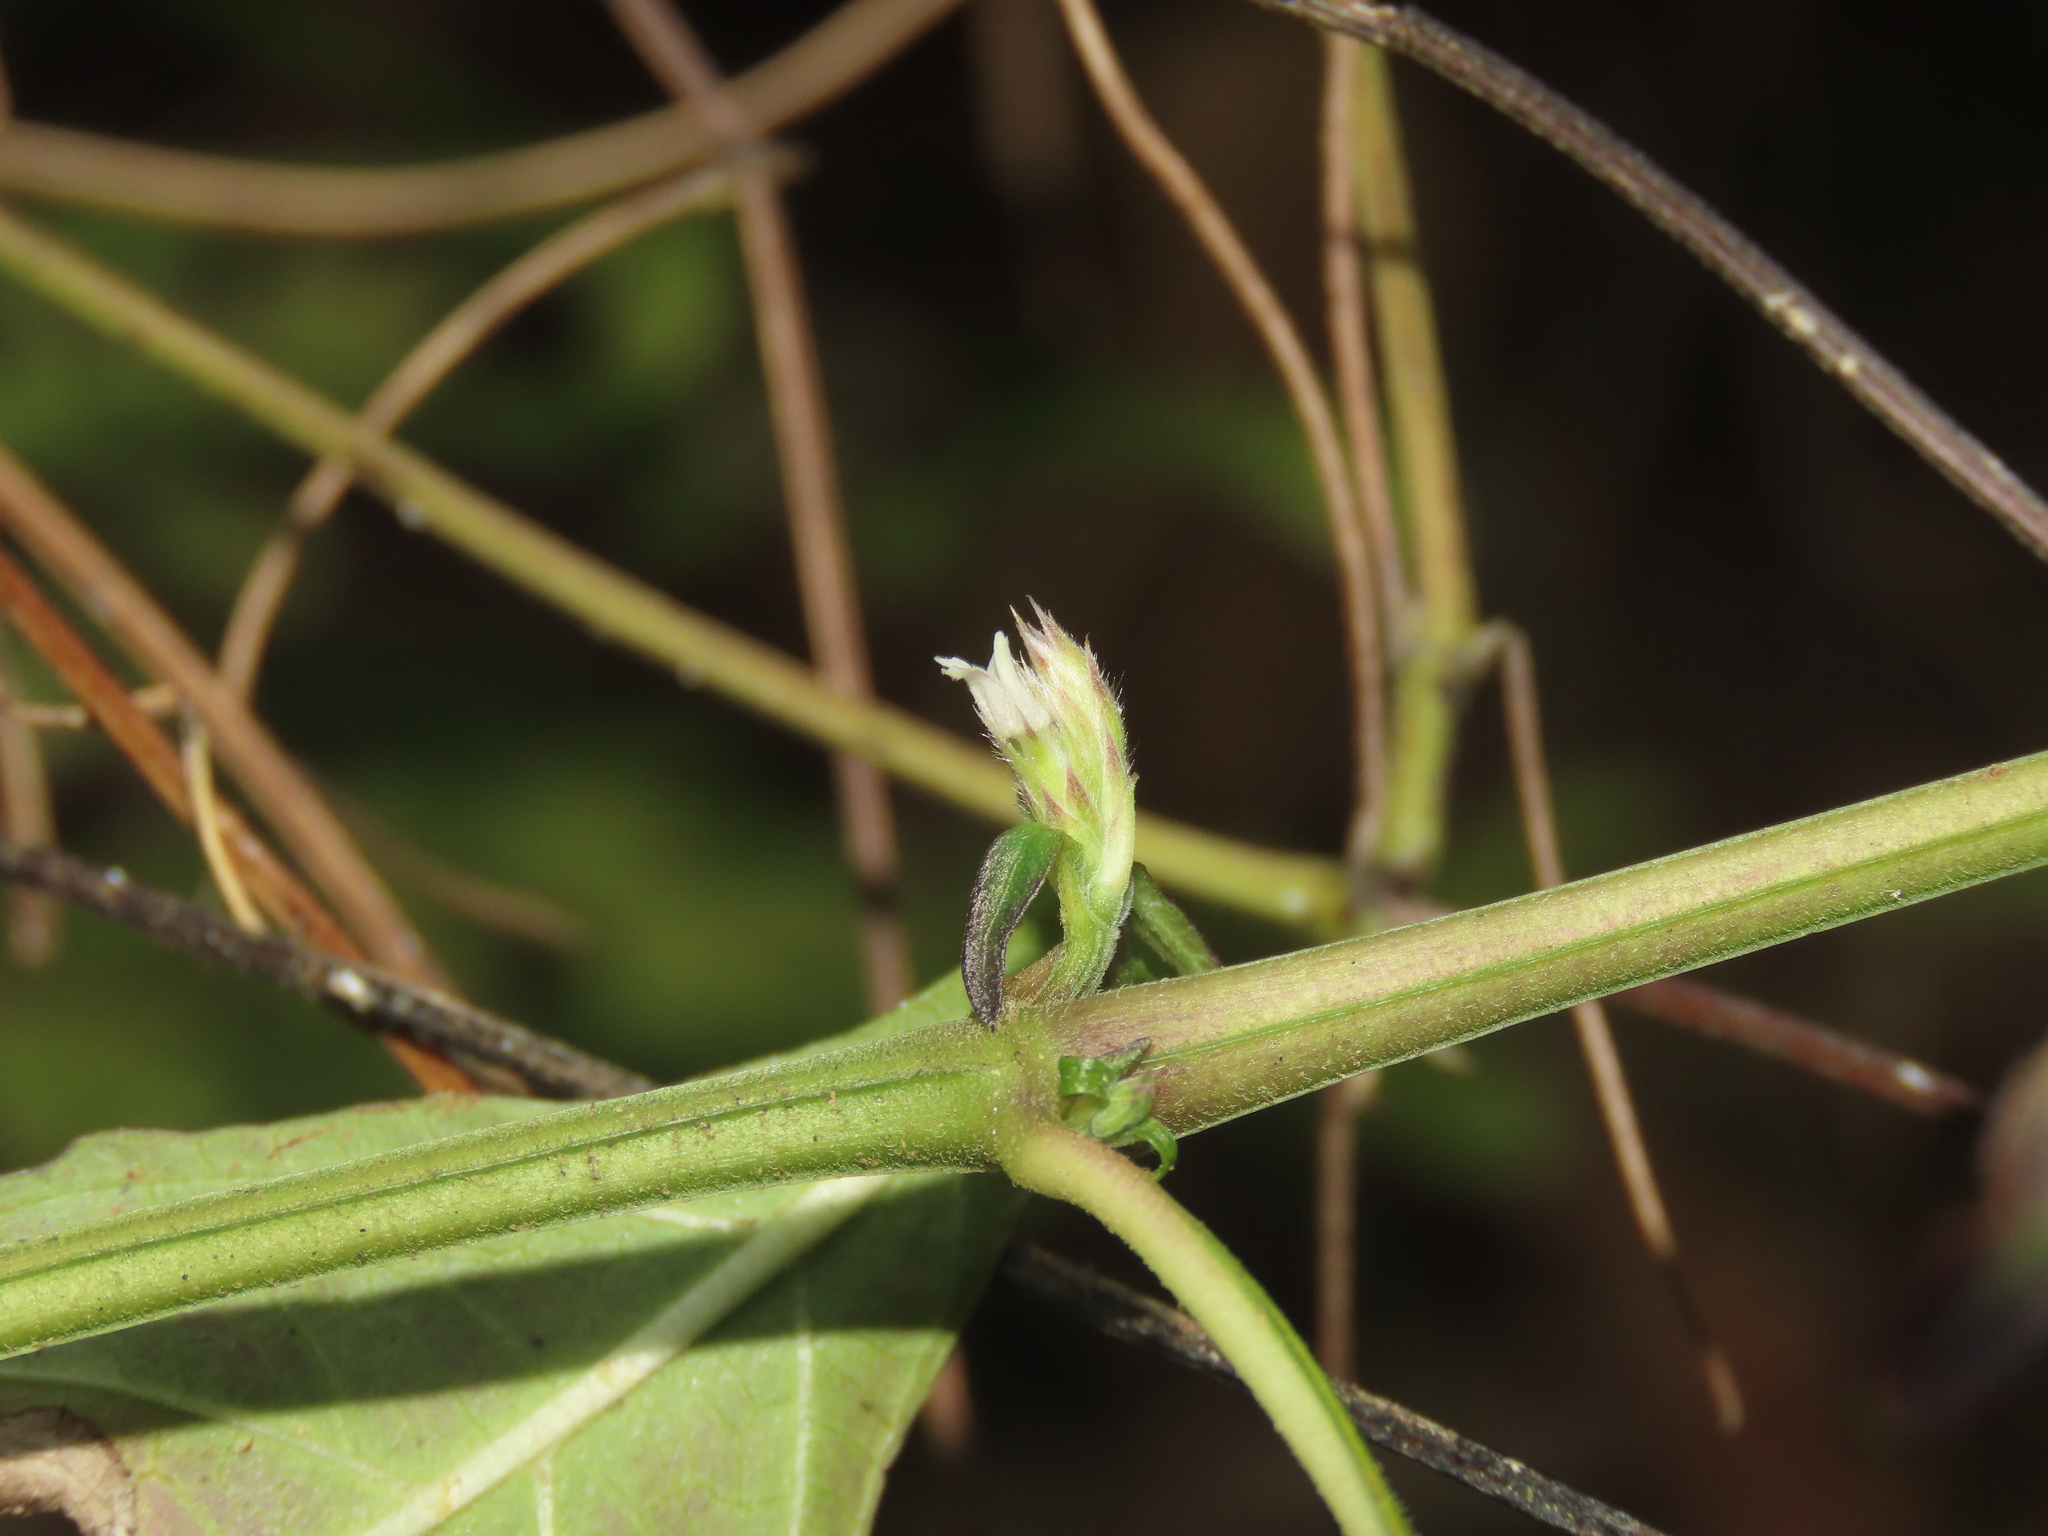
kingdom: Plantae
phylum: Tracheophyta
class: Magnoliopsida
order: Lamiales
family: Acanthaceae
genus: Lepidagathis
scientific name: Lepidagathis formosensis
